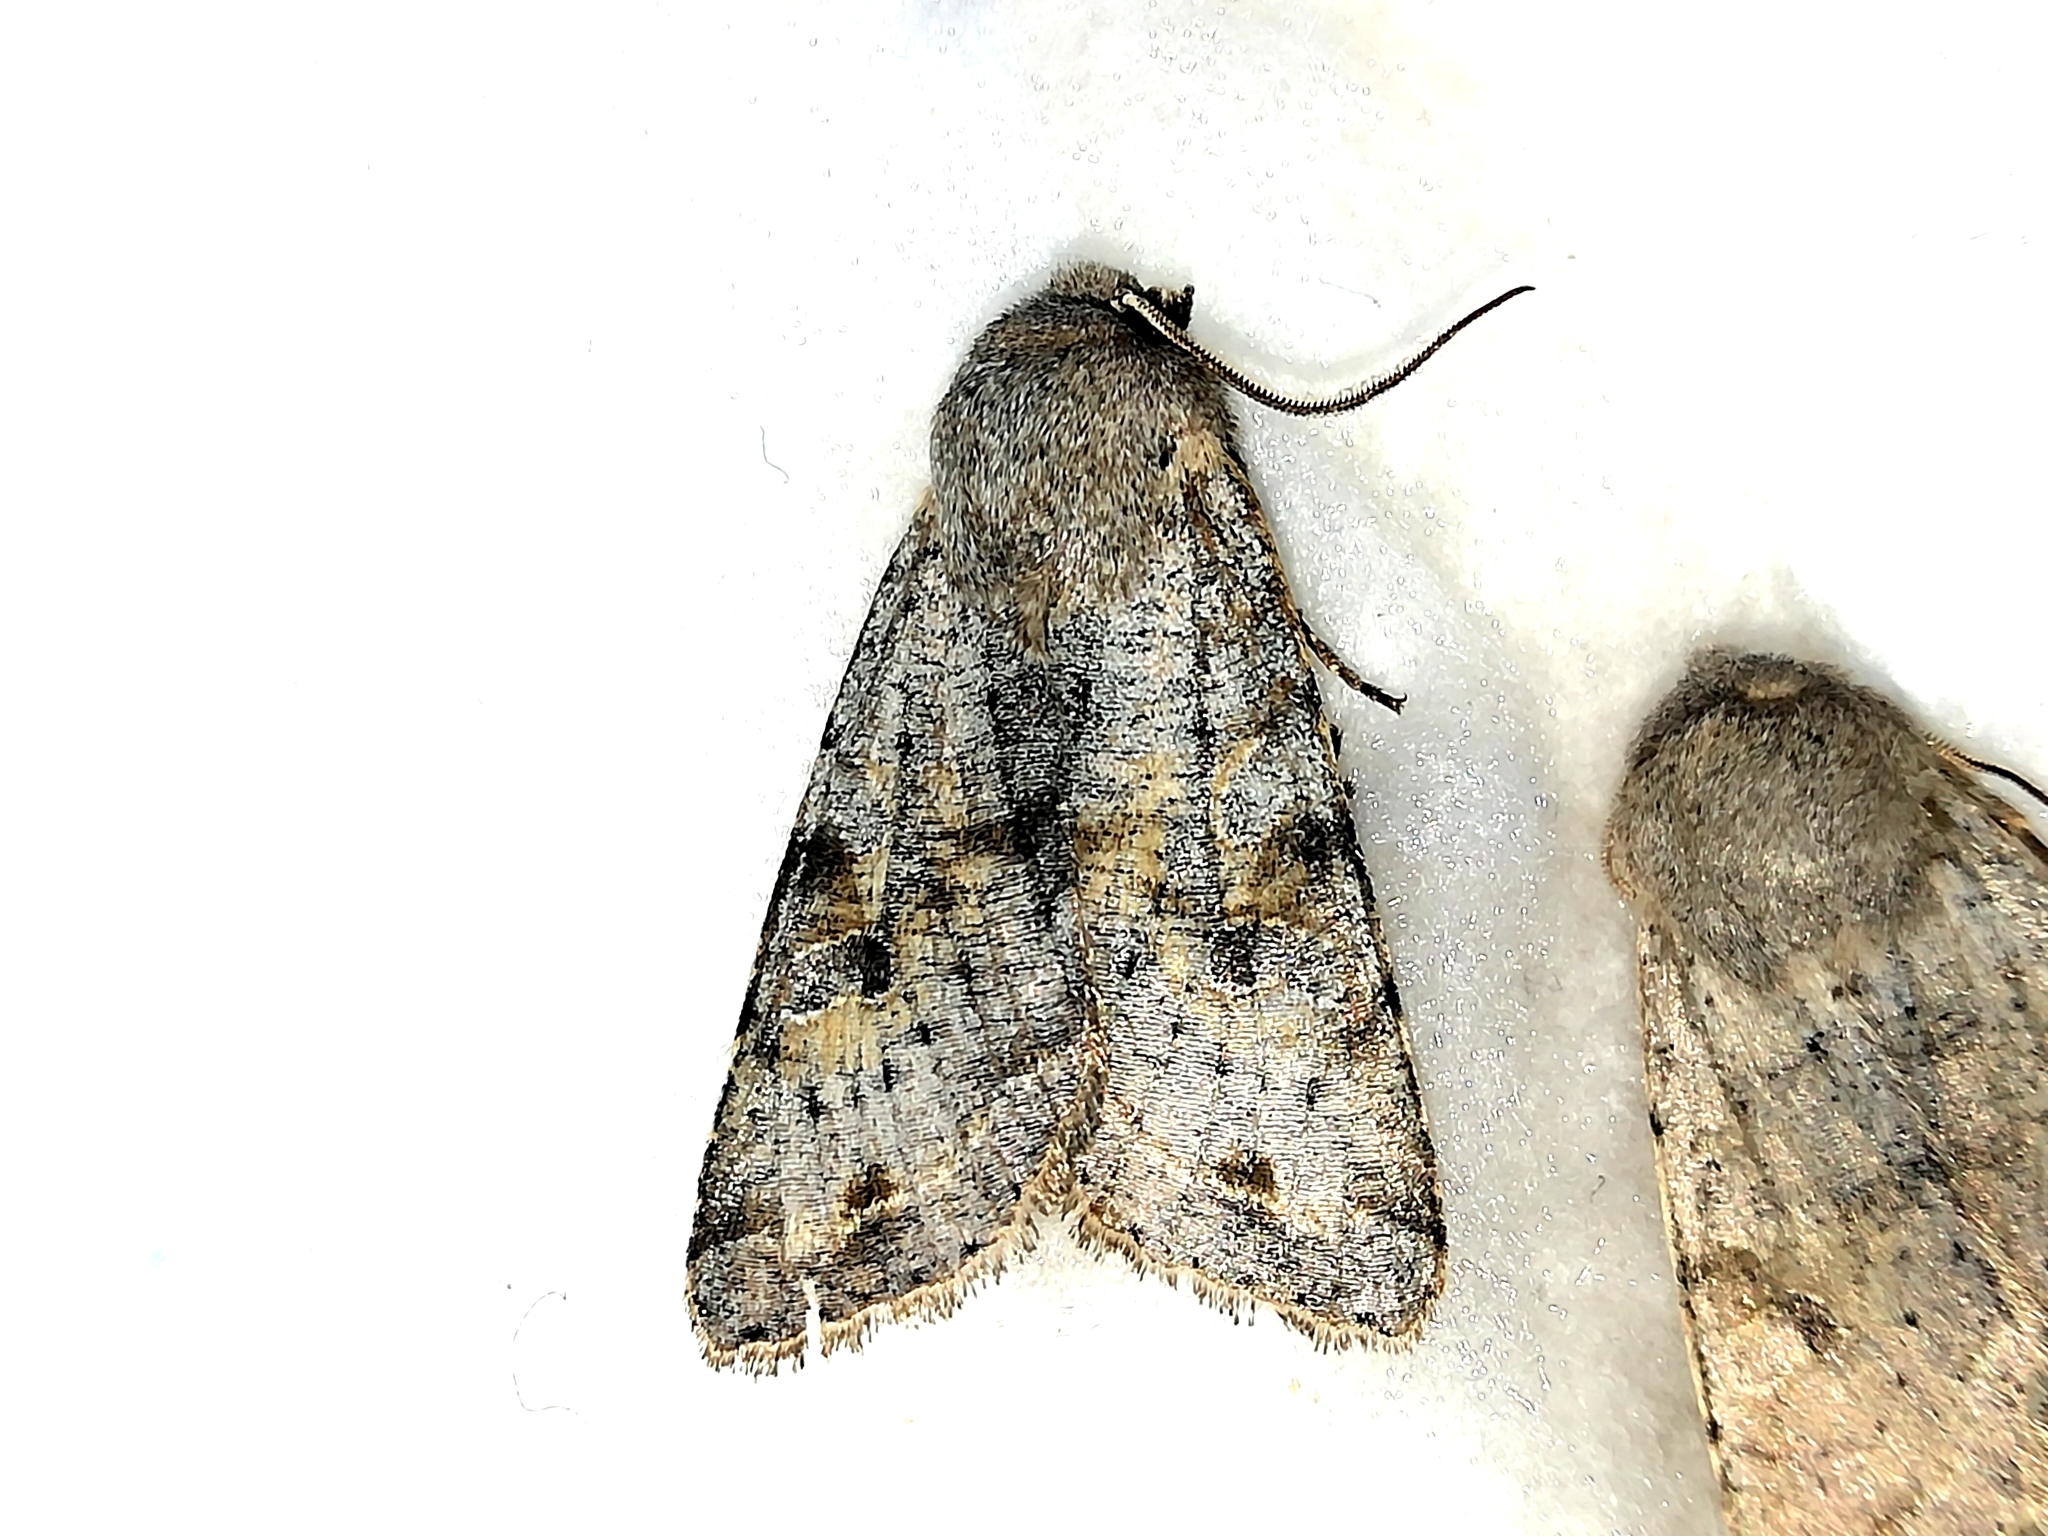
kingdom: Animalia
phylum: Arthropoda
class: Insecta
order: Lepidoptera
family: Noctuidae
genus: Orthosia
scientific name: Orthosia incerta
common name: Clouded drab
